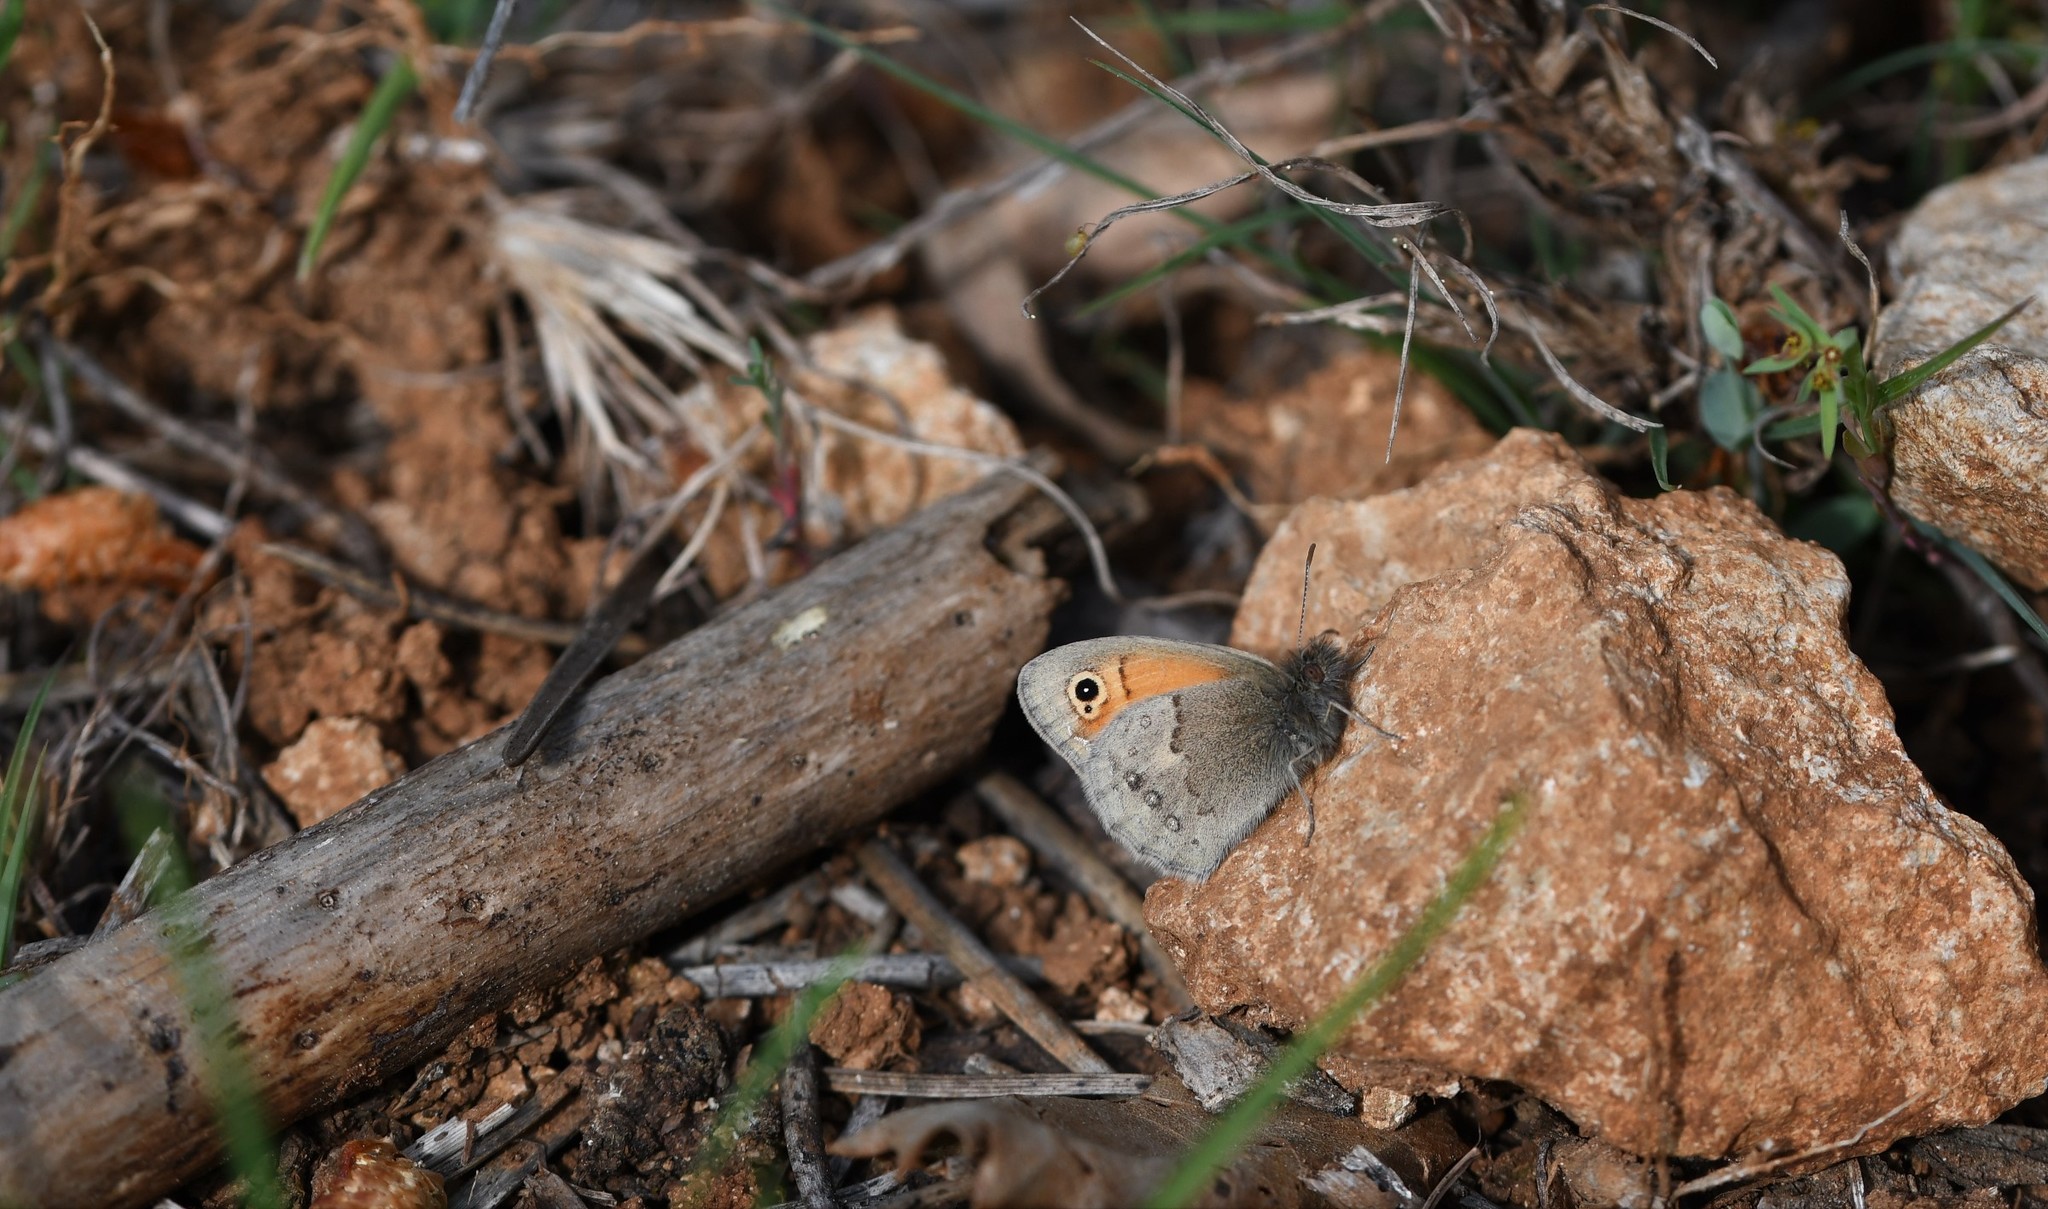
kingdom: Animalia
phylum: Arthropoda
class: Insecta
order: Lepidoptera
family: Nymphalidae
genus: Coenonympha
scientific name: Coenonympha pamphilus
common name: Small heath
